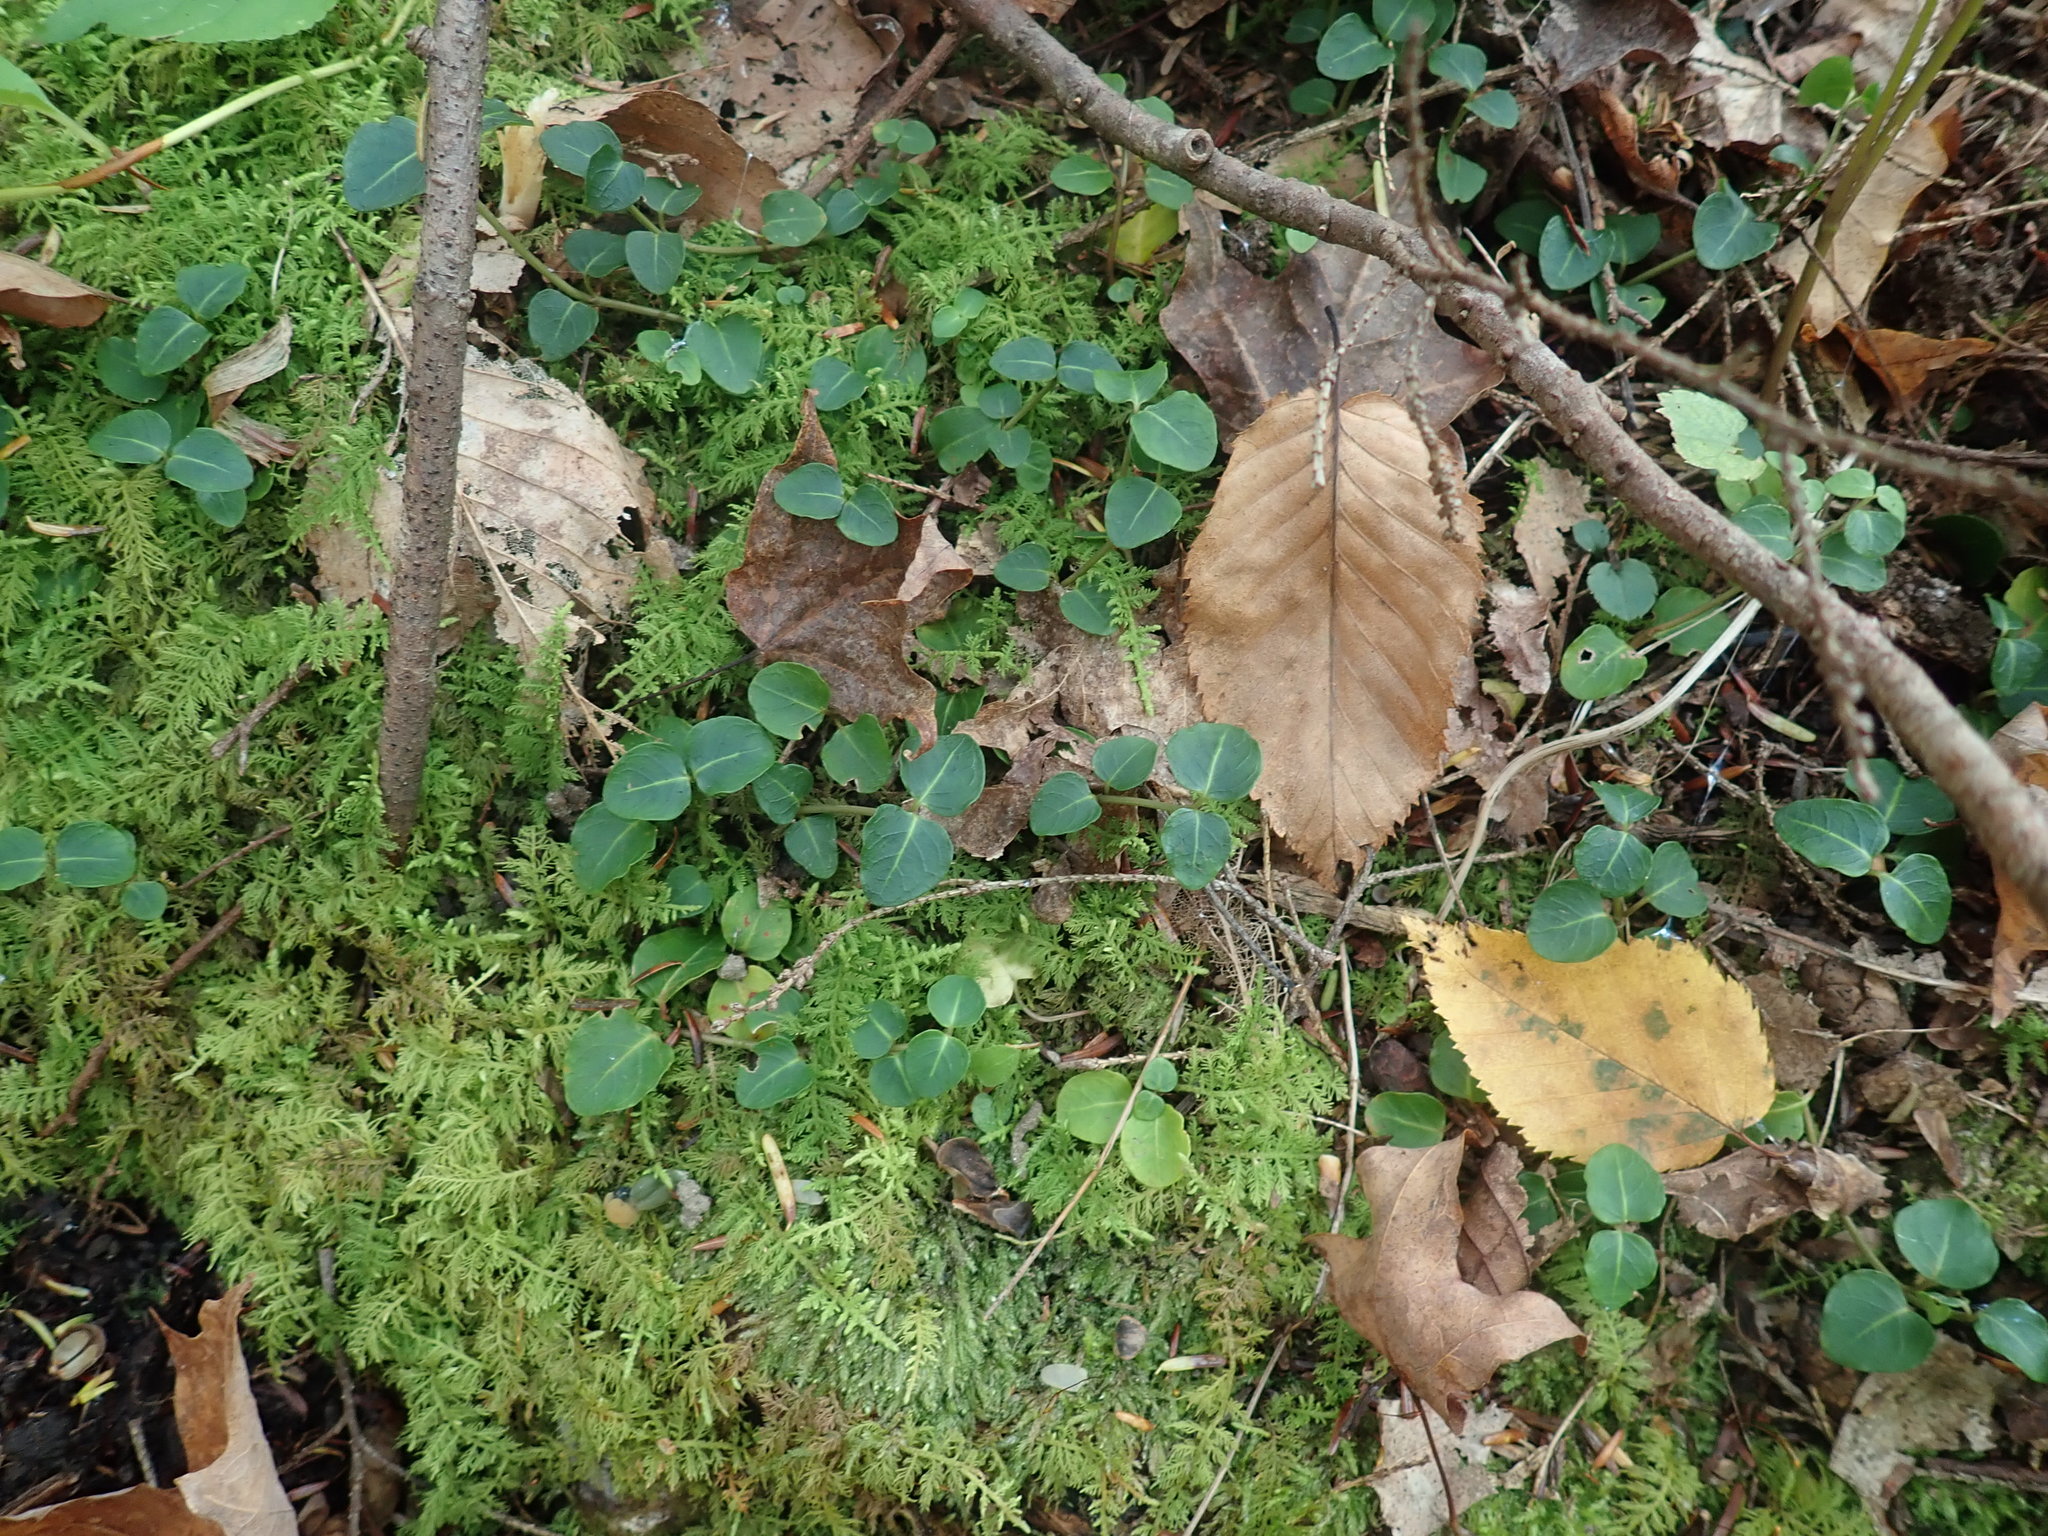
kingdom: Plantae
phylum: Tracheophyta
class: Magnoliopsida
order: Gentianales
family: Rubiaceae
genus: Mitchella
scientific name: Mitchella repens
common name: Partridge-berry
